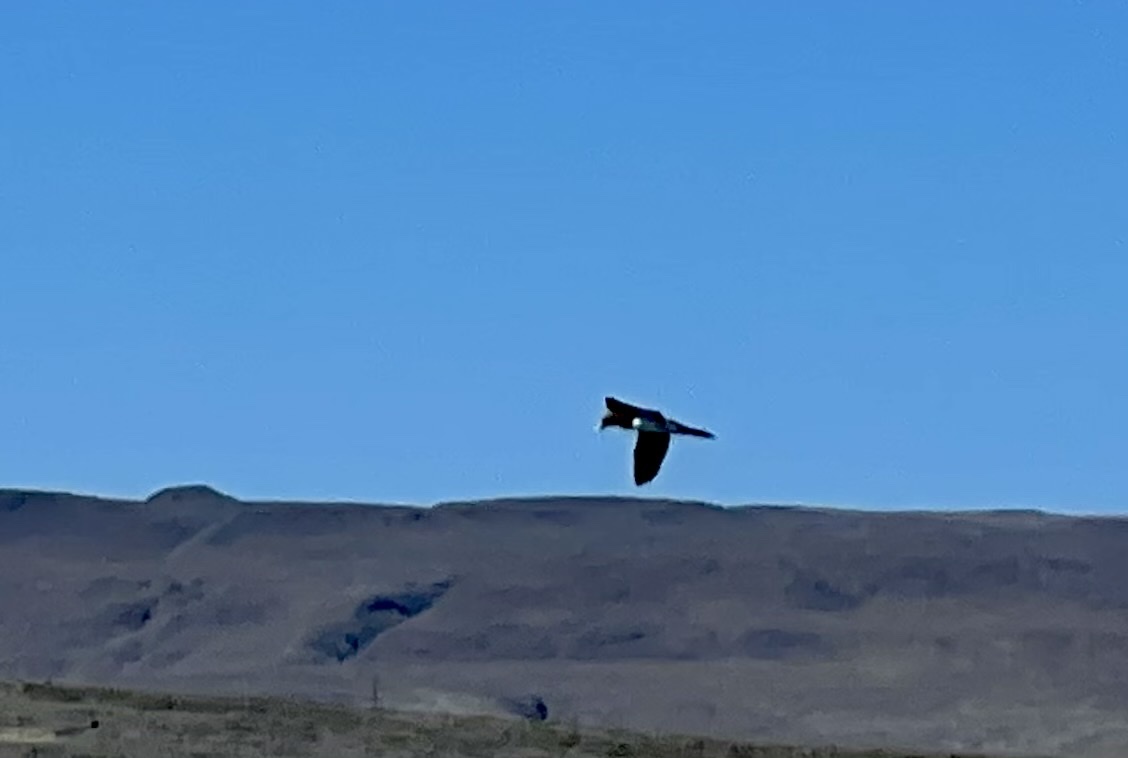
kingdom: Animalia
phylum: Chordata
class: Aves
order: Suliformes
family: Sulidae
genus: Sula
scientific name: Sula leucogaster
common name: Brown booby
